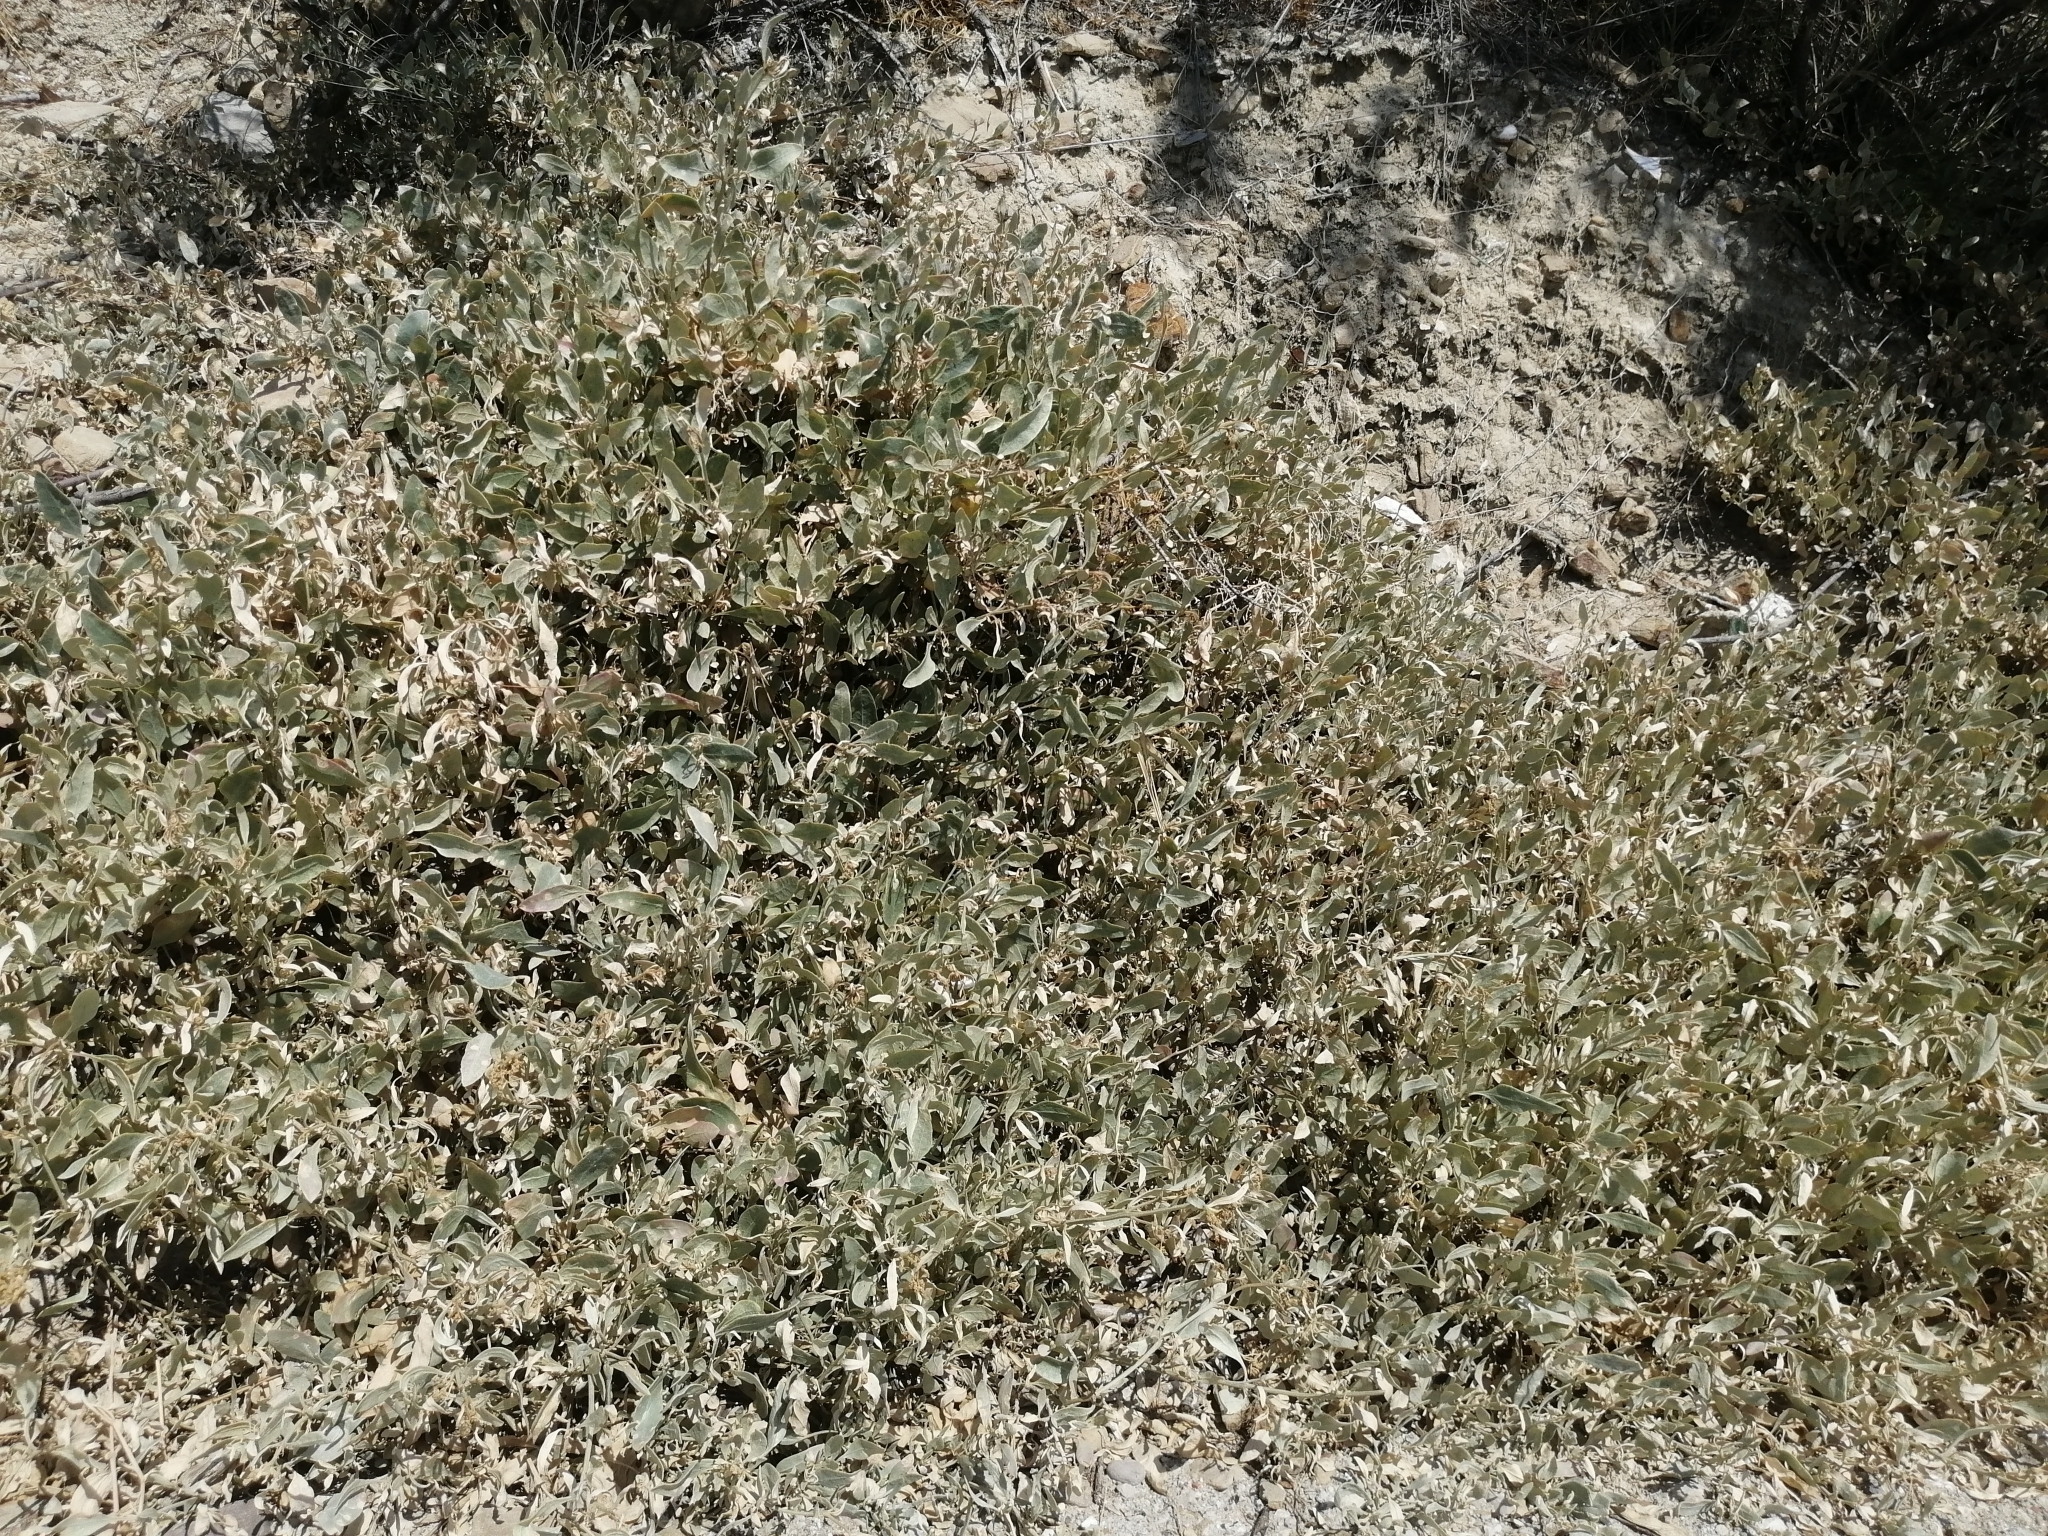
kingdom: Plantae
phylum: Tracheophyta
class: Magnoliopsida
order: Caryophyllales
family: Amaranthaceae
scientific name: Amaranthaceae
